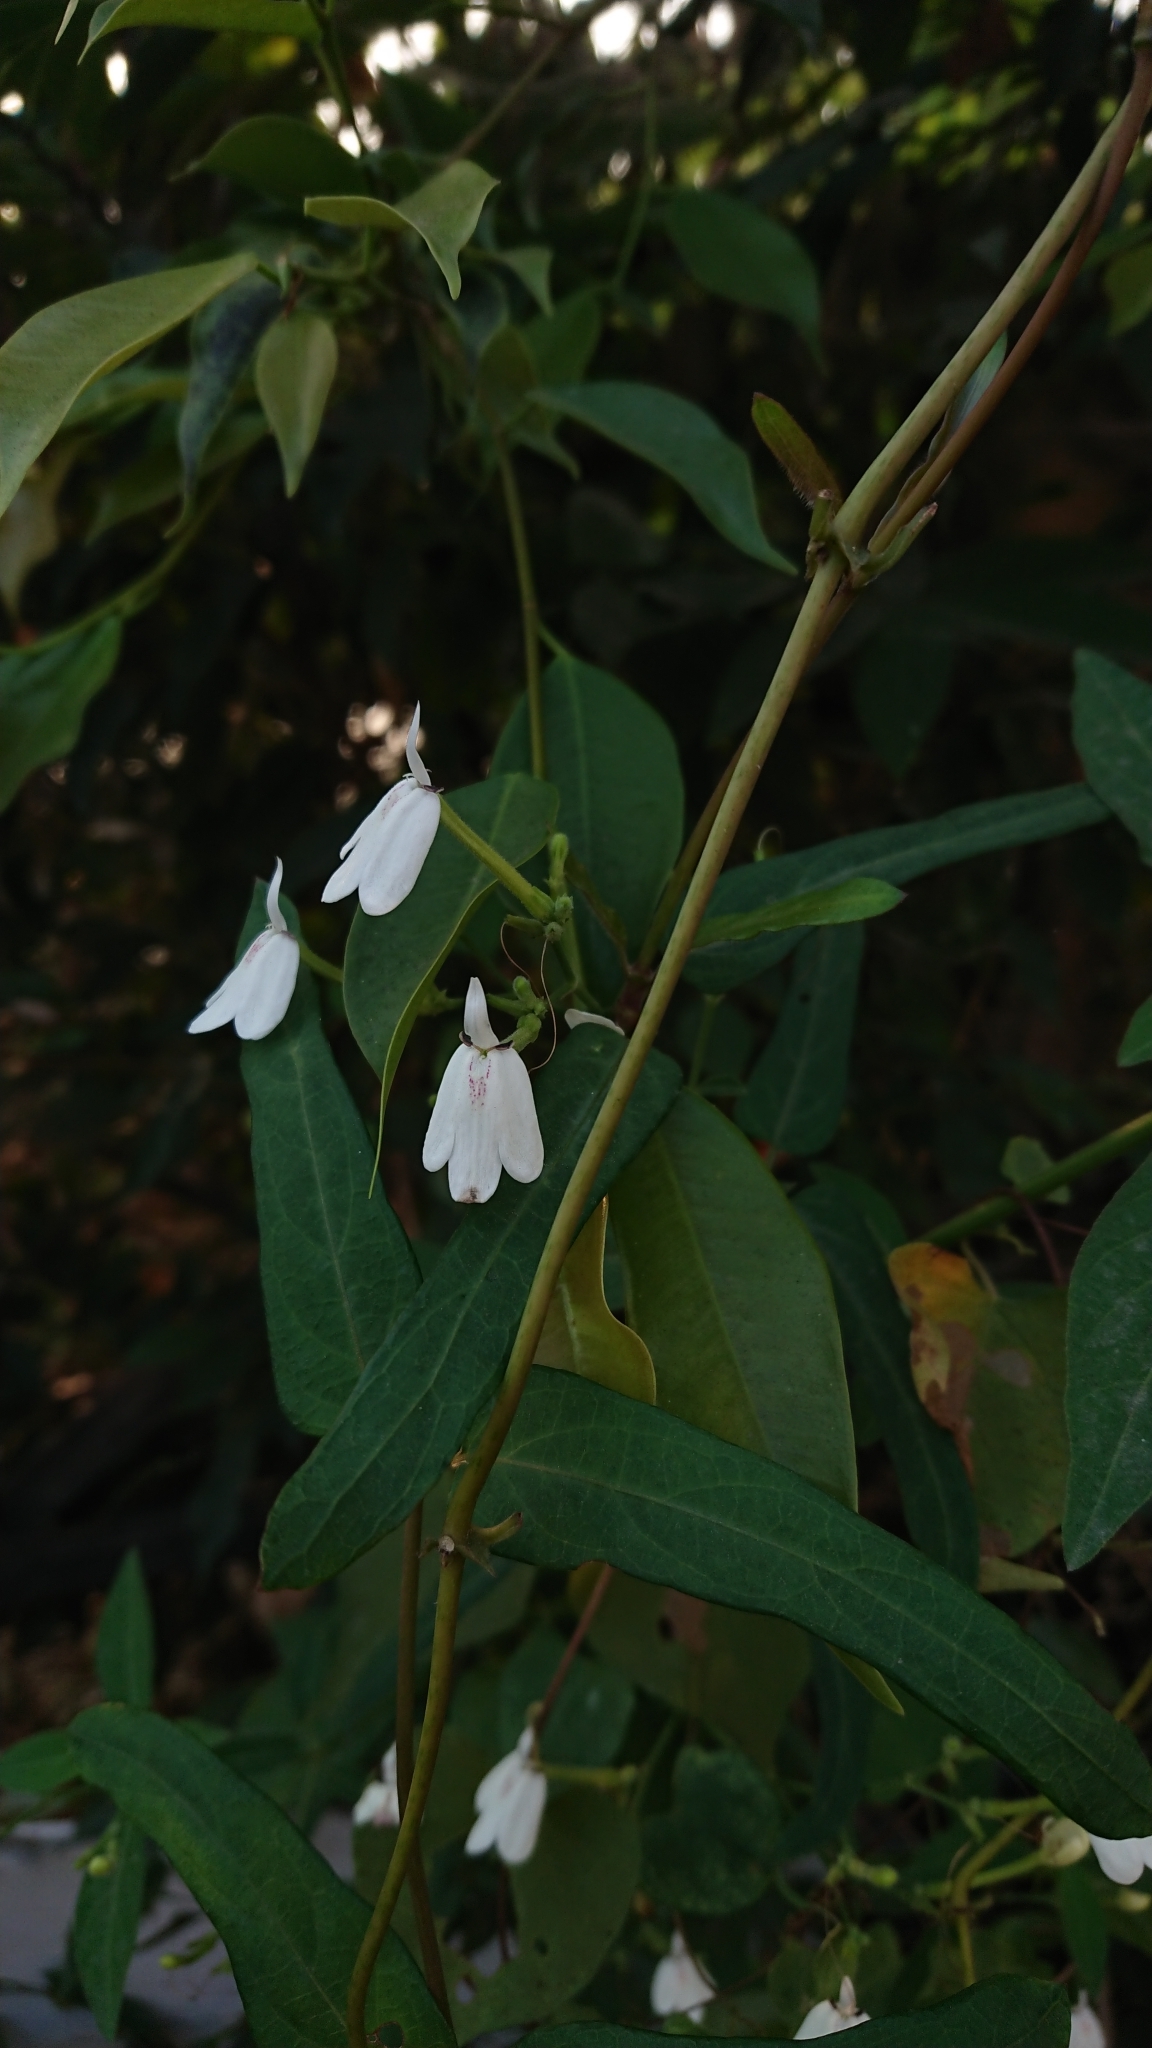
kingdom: Plantae
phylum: Tracheophyta
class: Magnoliopsida
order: Lamiales
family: Acanthaceae
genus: Rhinacanthus
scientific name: Rhinacanthus nasutus
